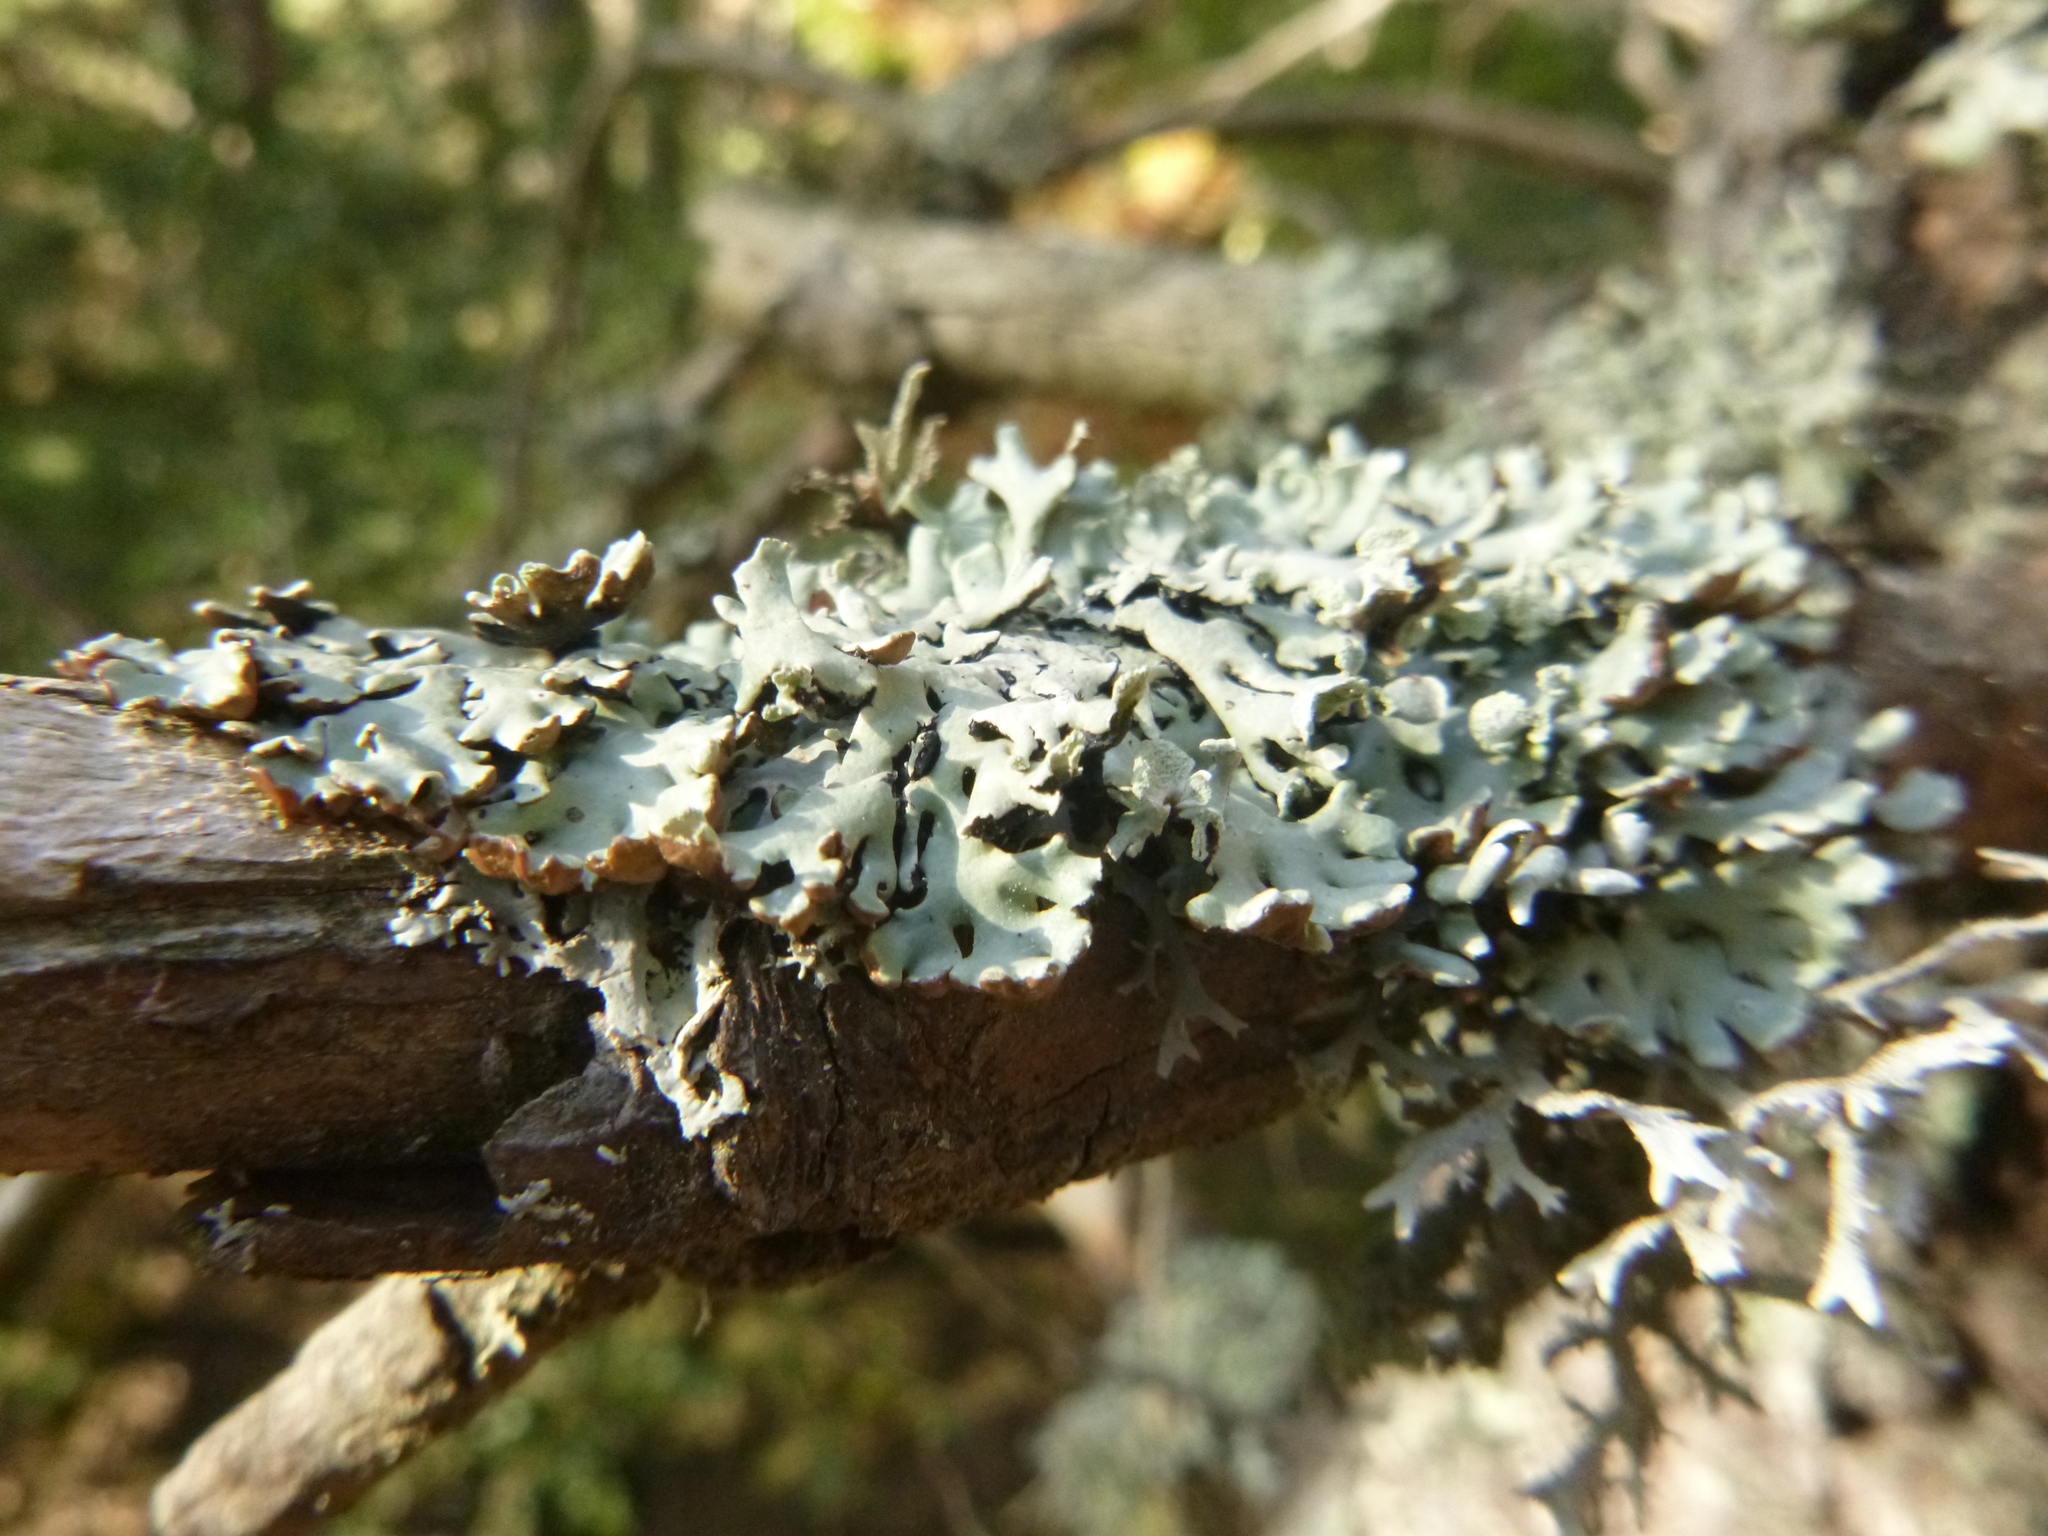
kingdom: Fungi
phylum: Ascomycota
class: Lecanoromycetes
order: Lecanorales
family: Parmeliaceae
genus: Hypogymnia
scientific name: Hypogymnia physodes
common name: Dark crottle
